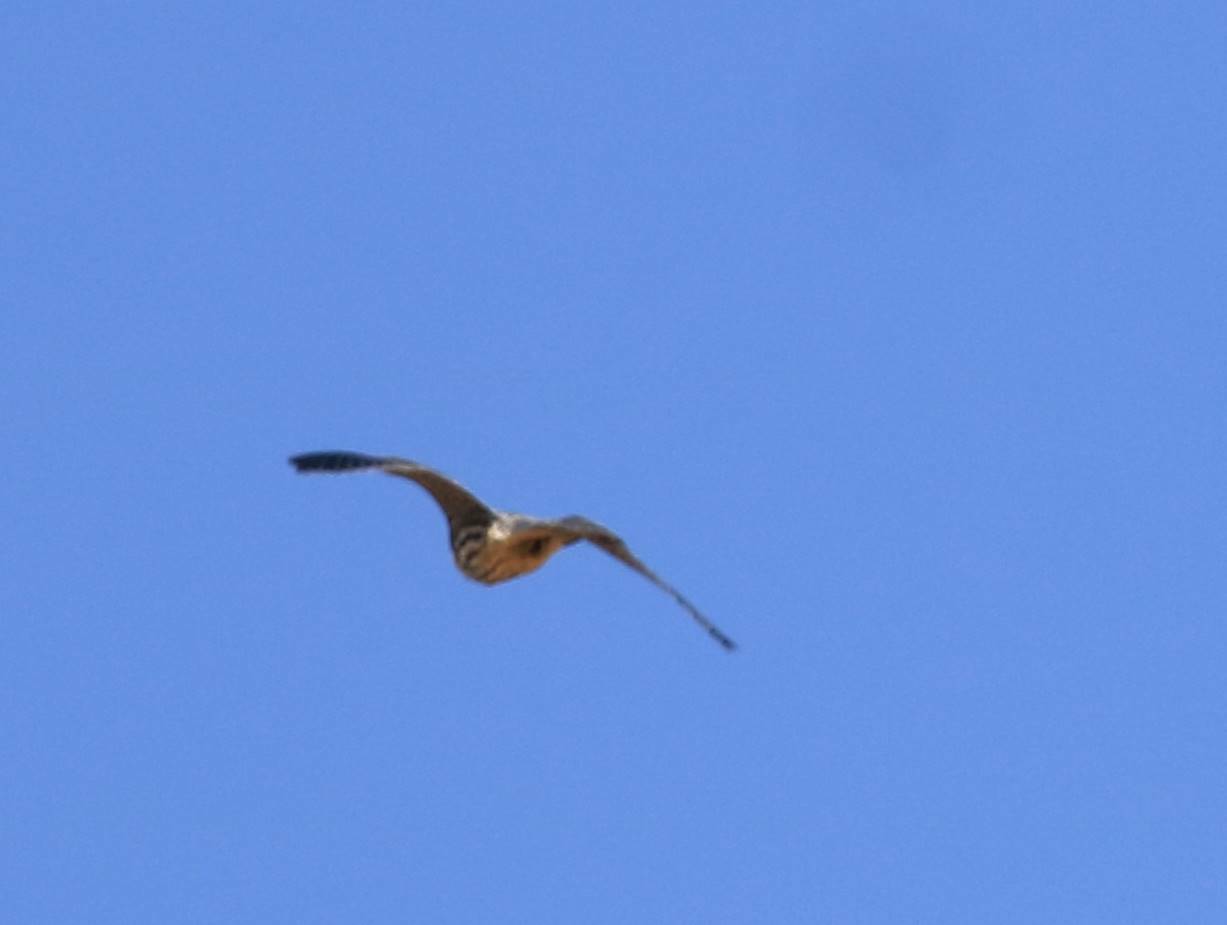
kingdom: Animalia
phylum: Chordata
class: Aves
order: Falconiformes
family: Falconidae
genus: Falco
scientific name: Falco subbuteo
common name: Eurasian hobby
